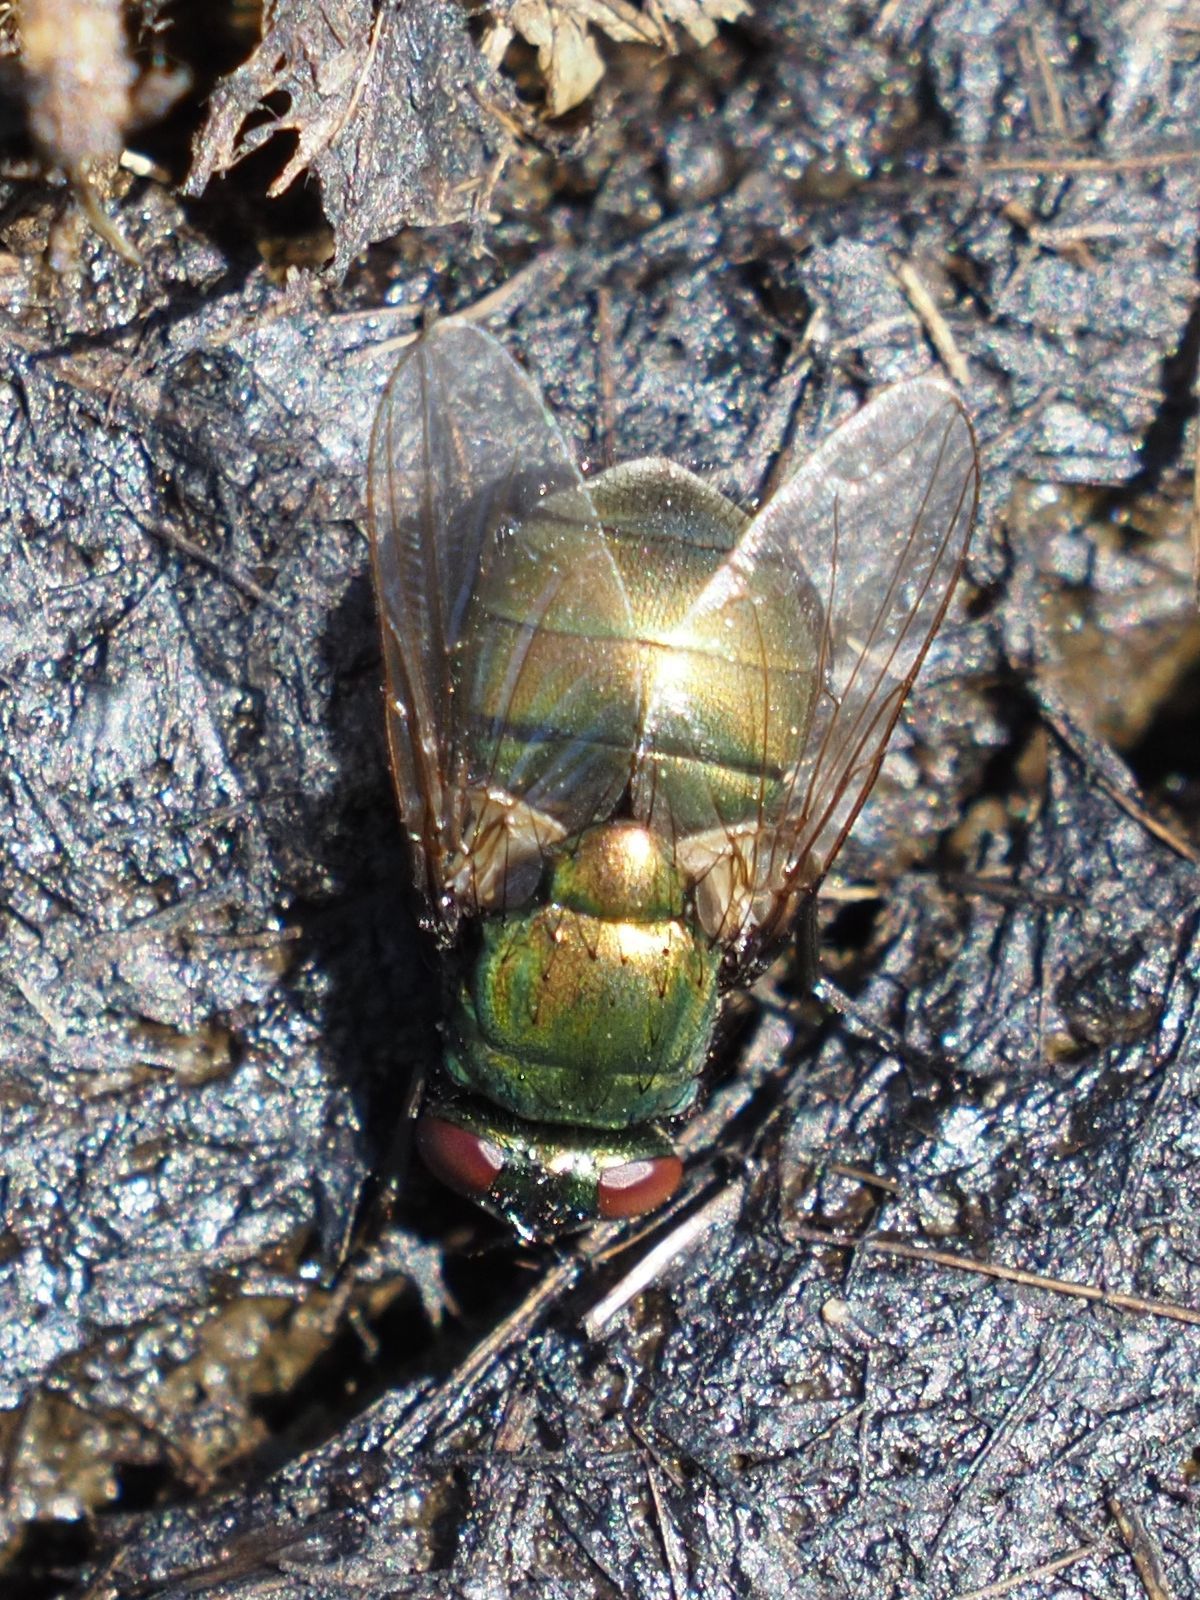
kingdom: Animalia
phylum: Arthropoda
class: Insecta
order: Diptera
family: Muscidae
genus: Neomyia
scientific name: Neomyia cornicina
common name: House fly
